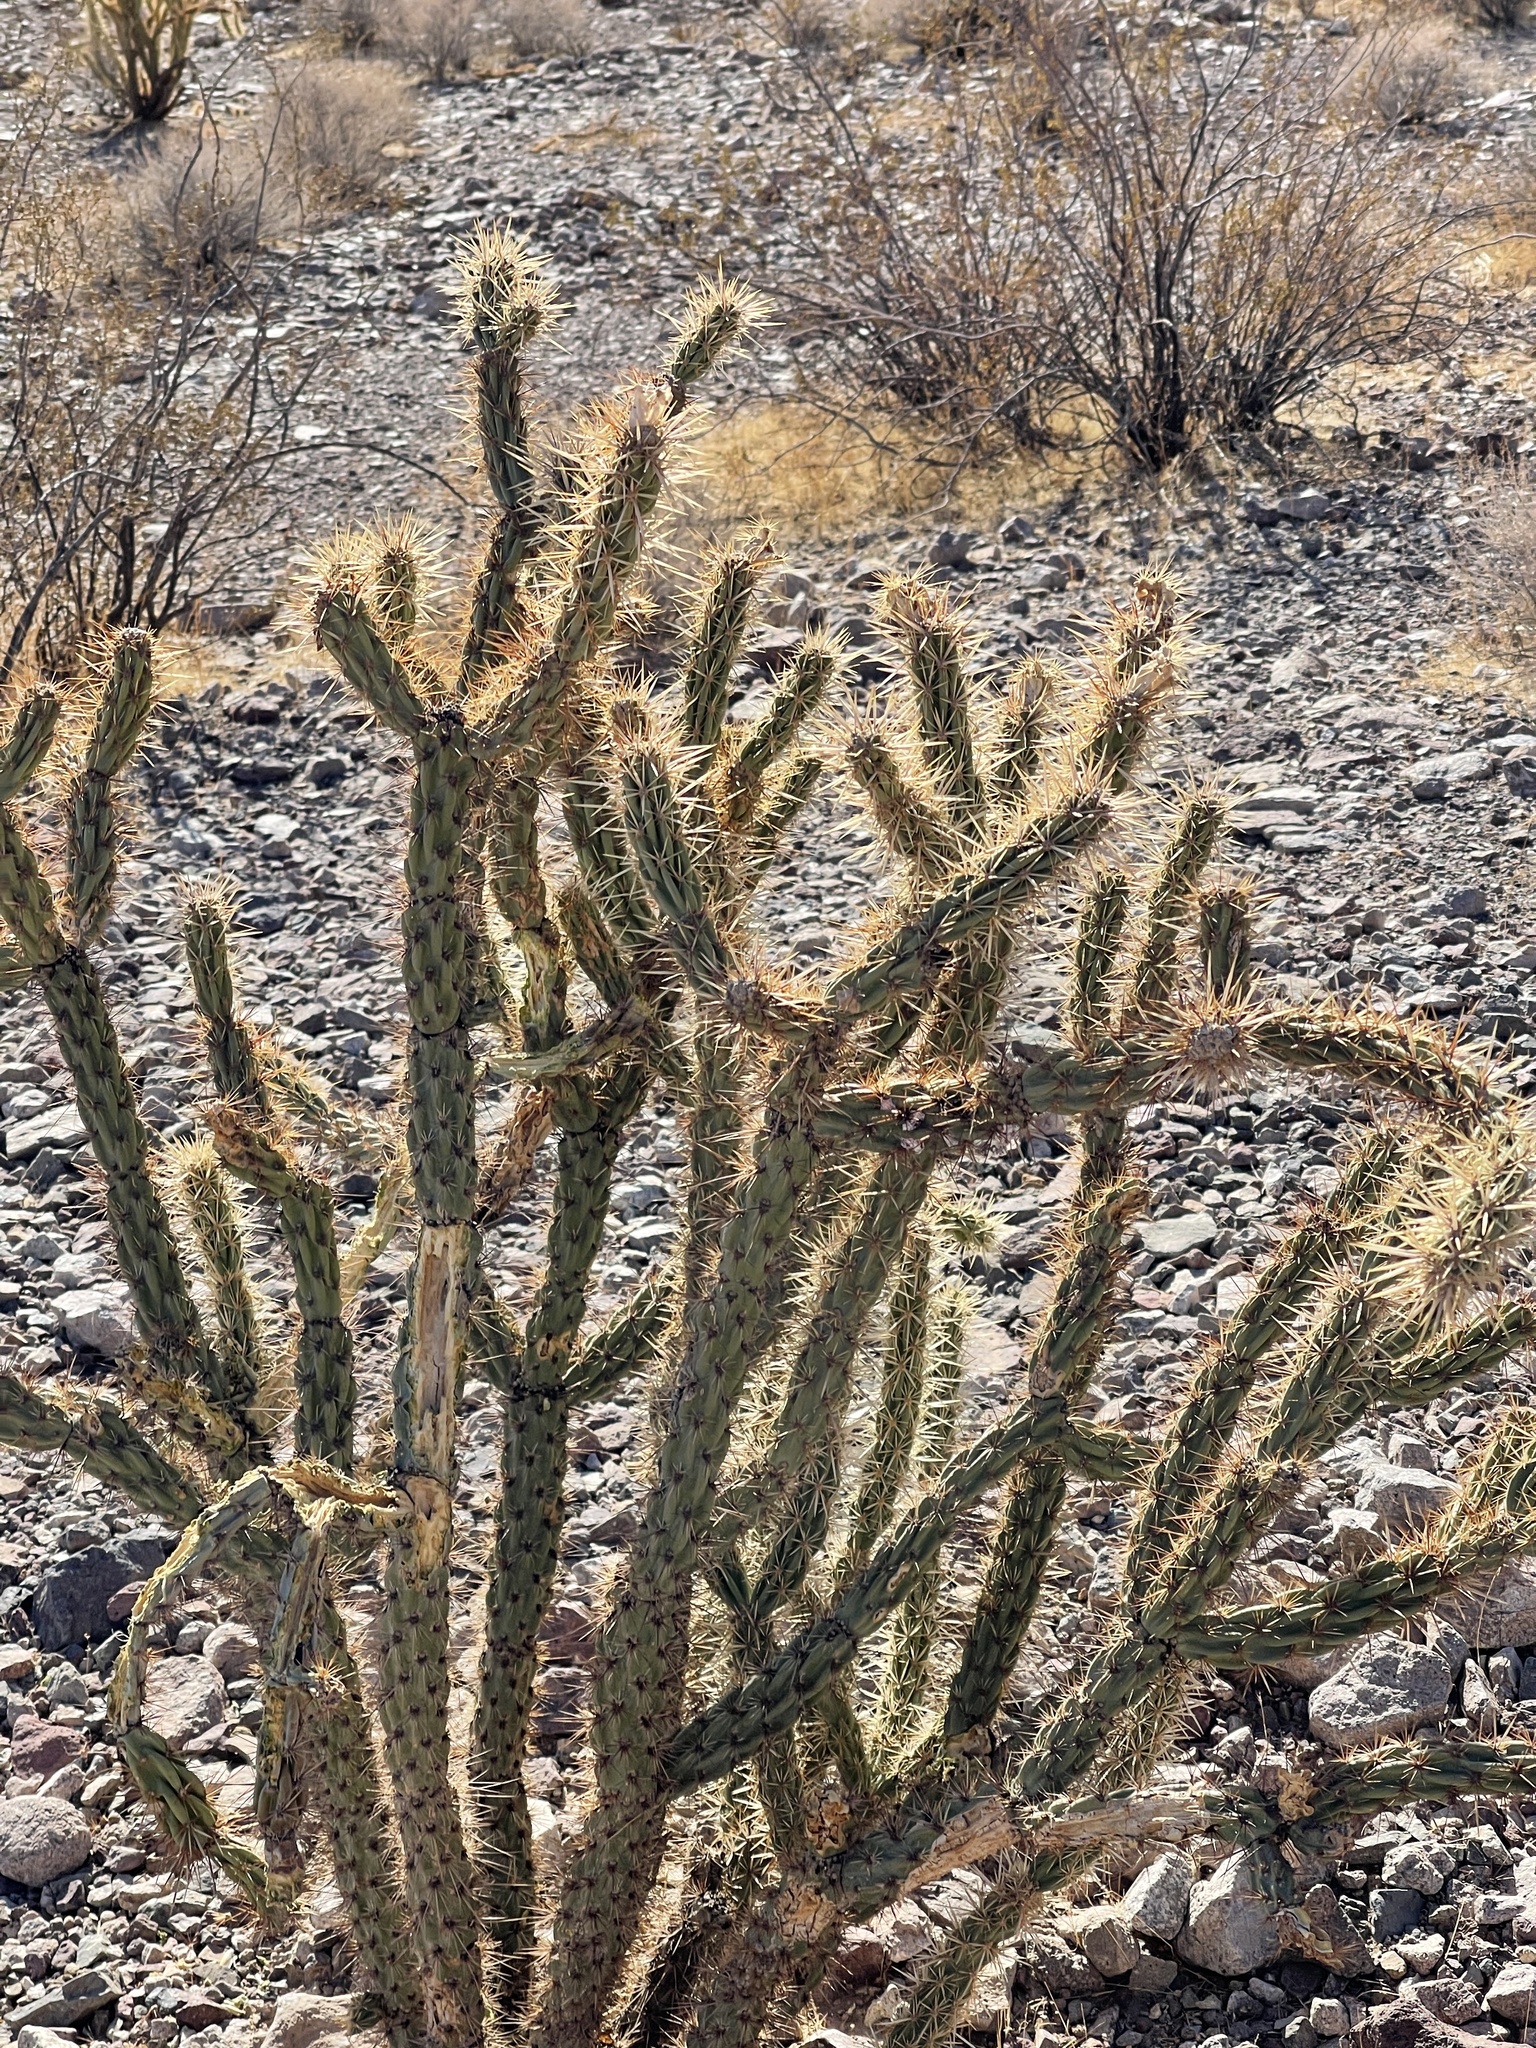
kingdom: Plantae
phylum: Tracheophyta
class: Magnoliopsida
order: Caryophyllales
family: Cactaceae
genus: Cylindropuntia
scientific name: Cylindropuntia acanthocarpa
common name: Buckhorn cholla
